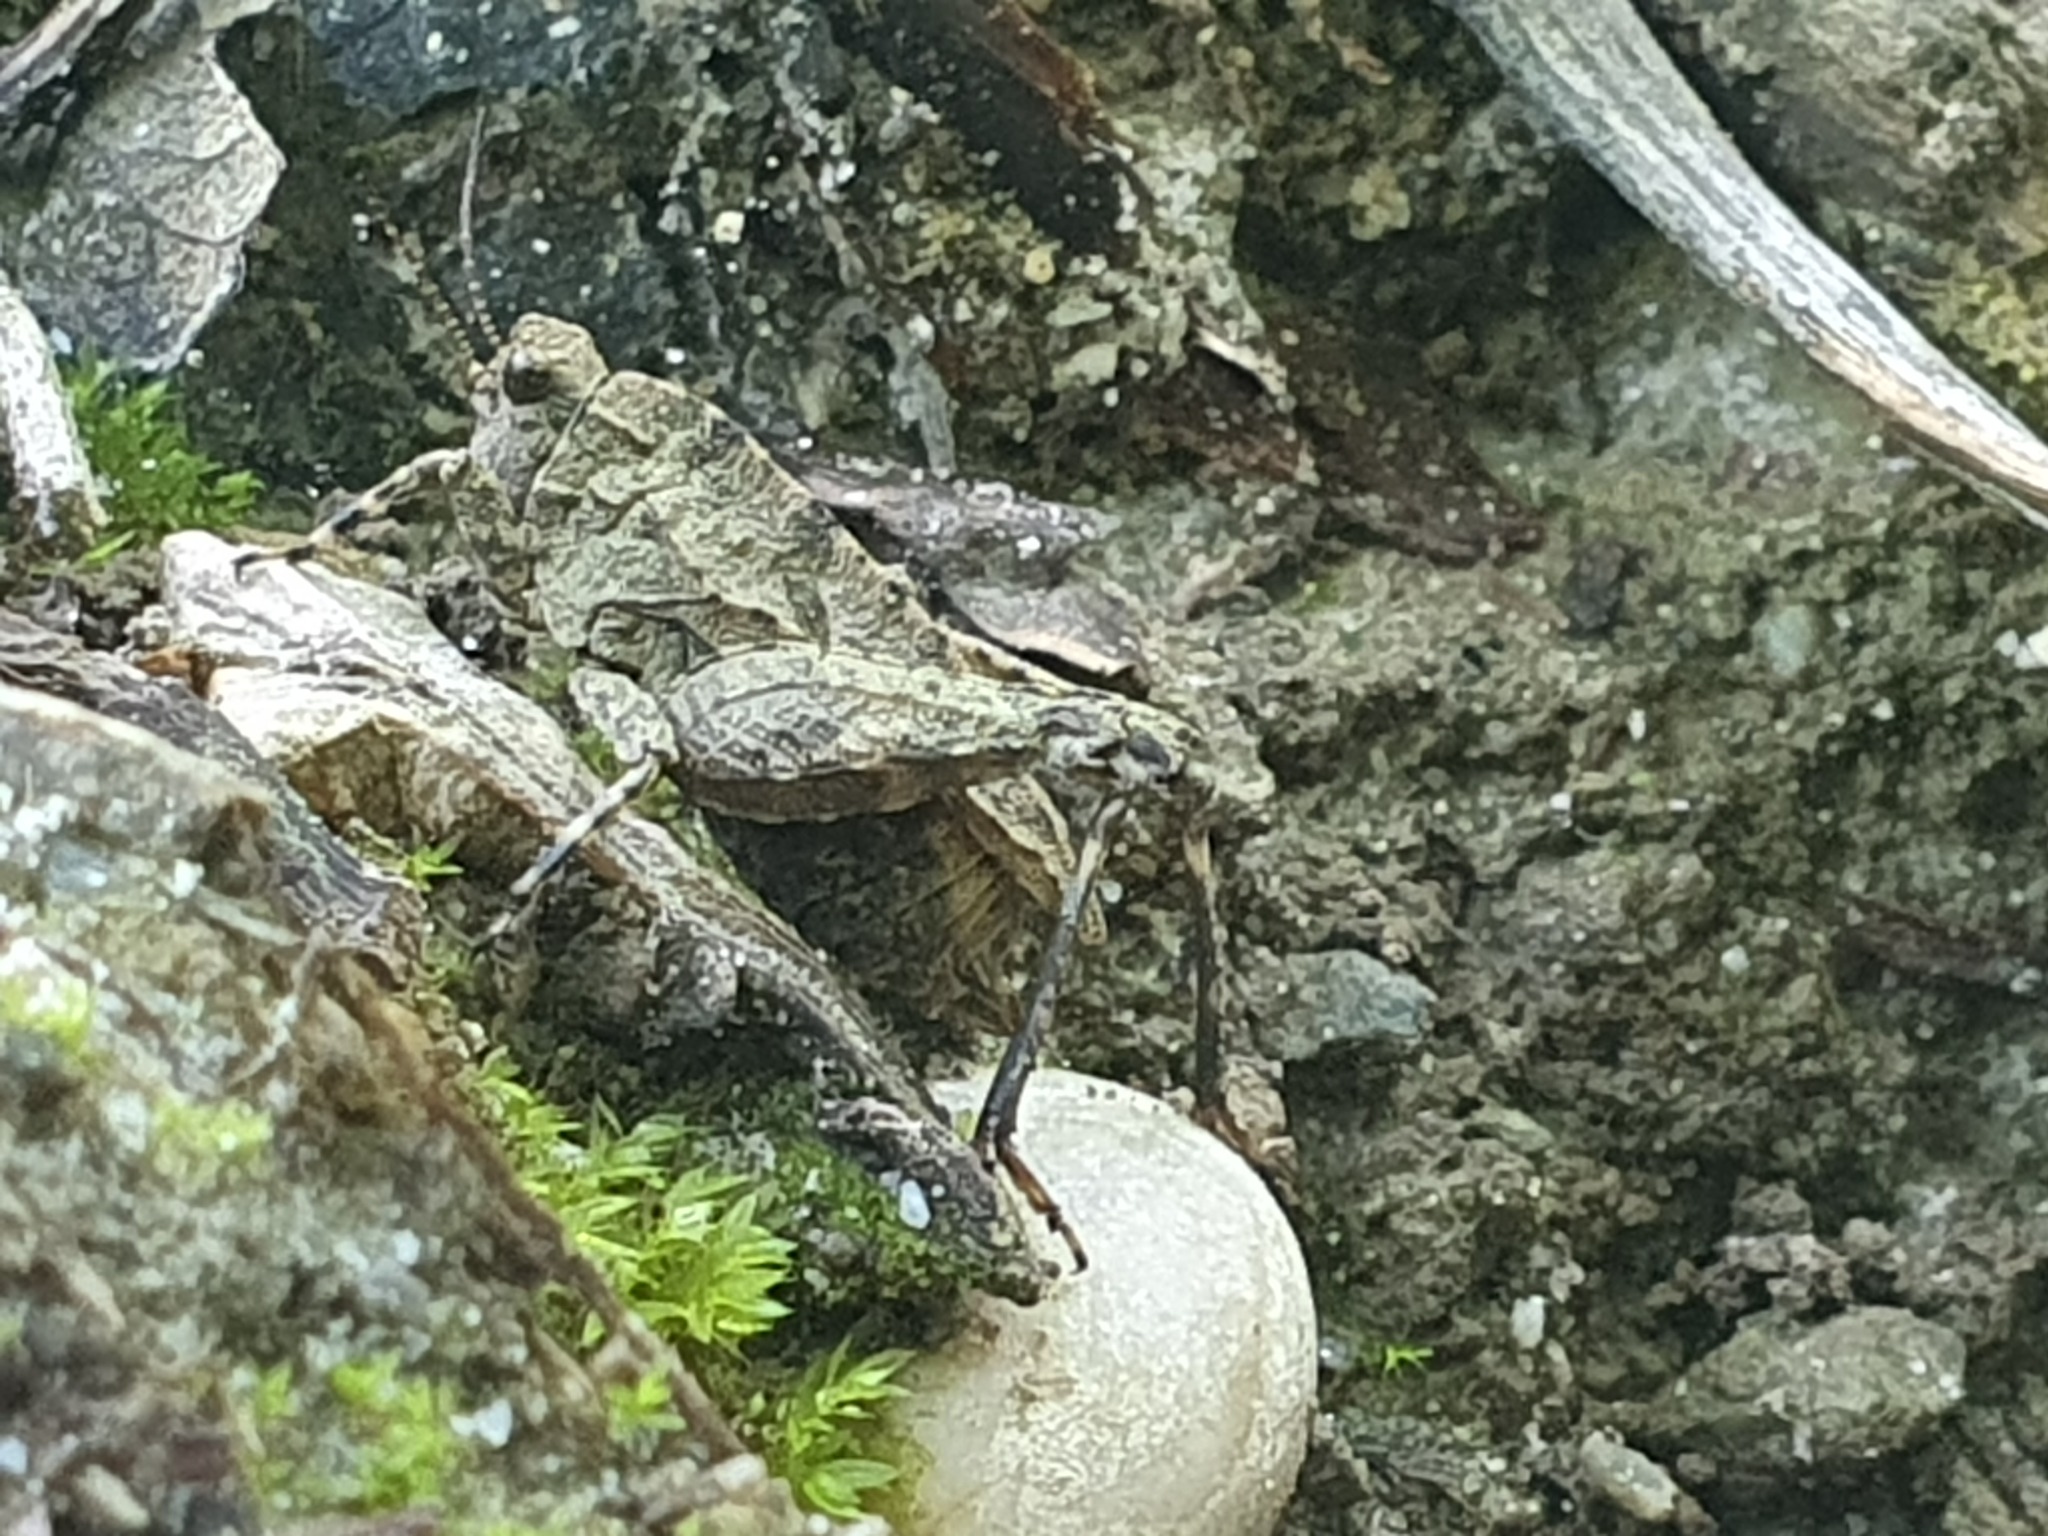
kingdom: Animalia
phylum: Arthropoda
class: Insecta
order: Orthoptera
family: Tetrigidae
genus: Tetrix
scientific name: Tetrix transsylvanica
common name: Transsylvanian wingless groundhopper
